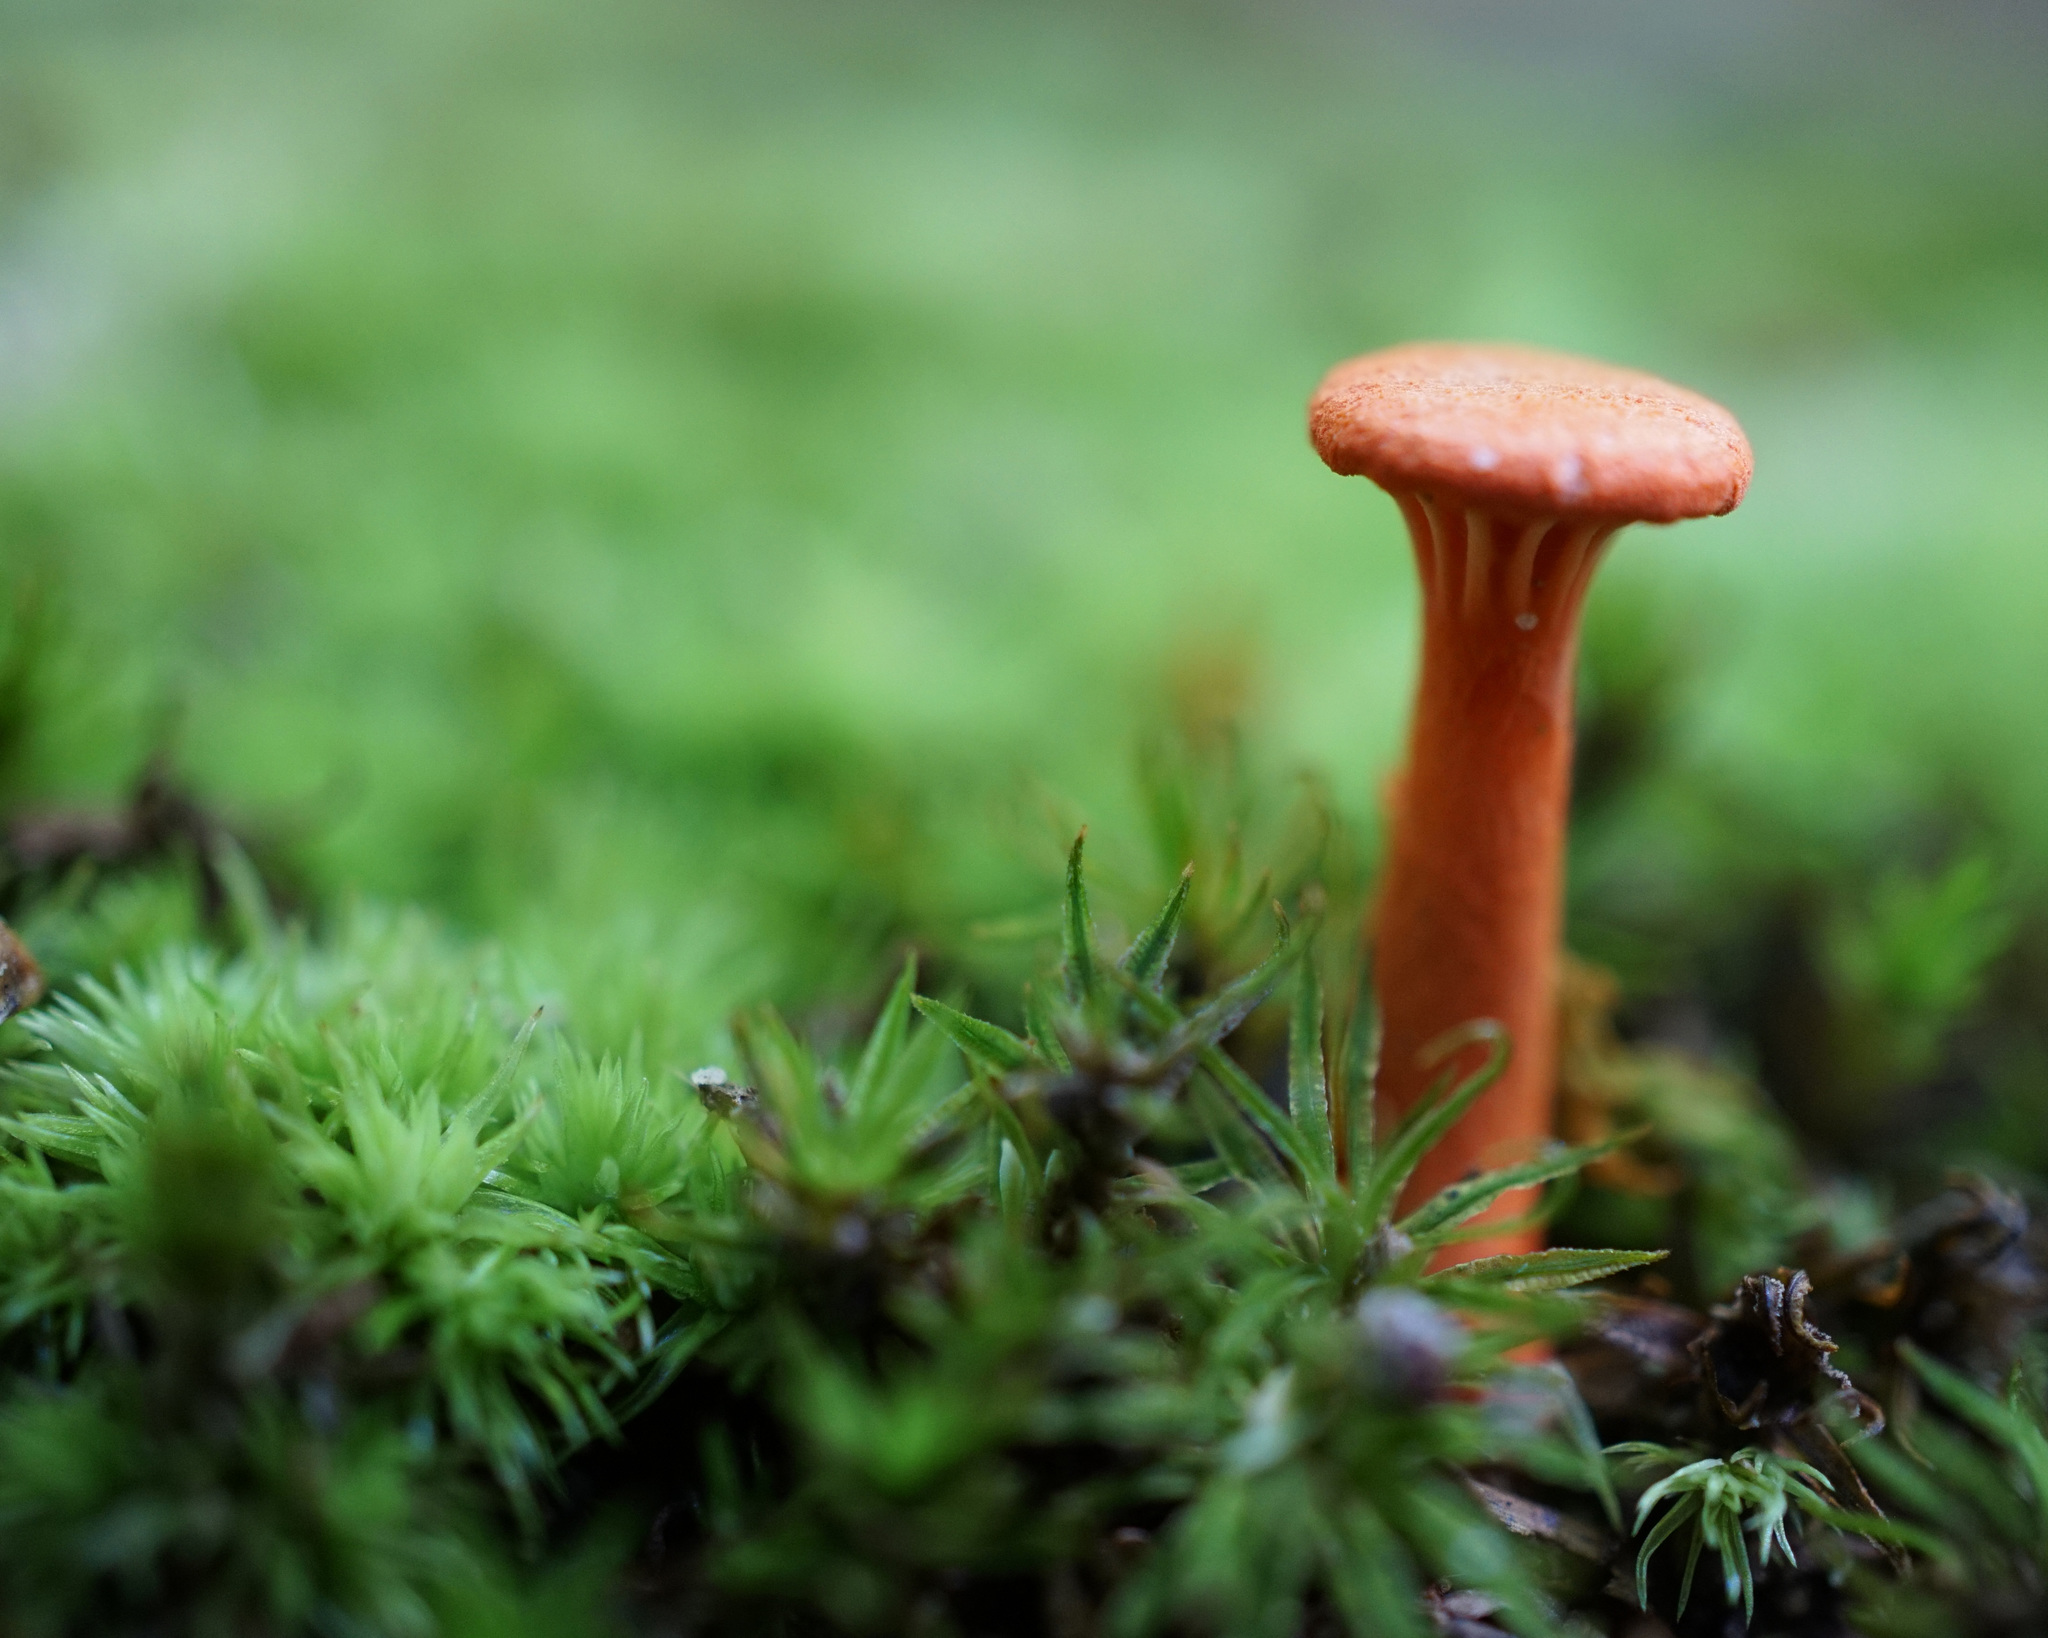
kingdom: Fungi
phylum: Basidiomycota
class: Agaricomycetes
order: Cantharellales
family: Hydnaceae
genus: Cantharellus
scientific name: Cantharellus cinnabarinus
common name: Cinnabar chanterelle
